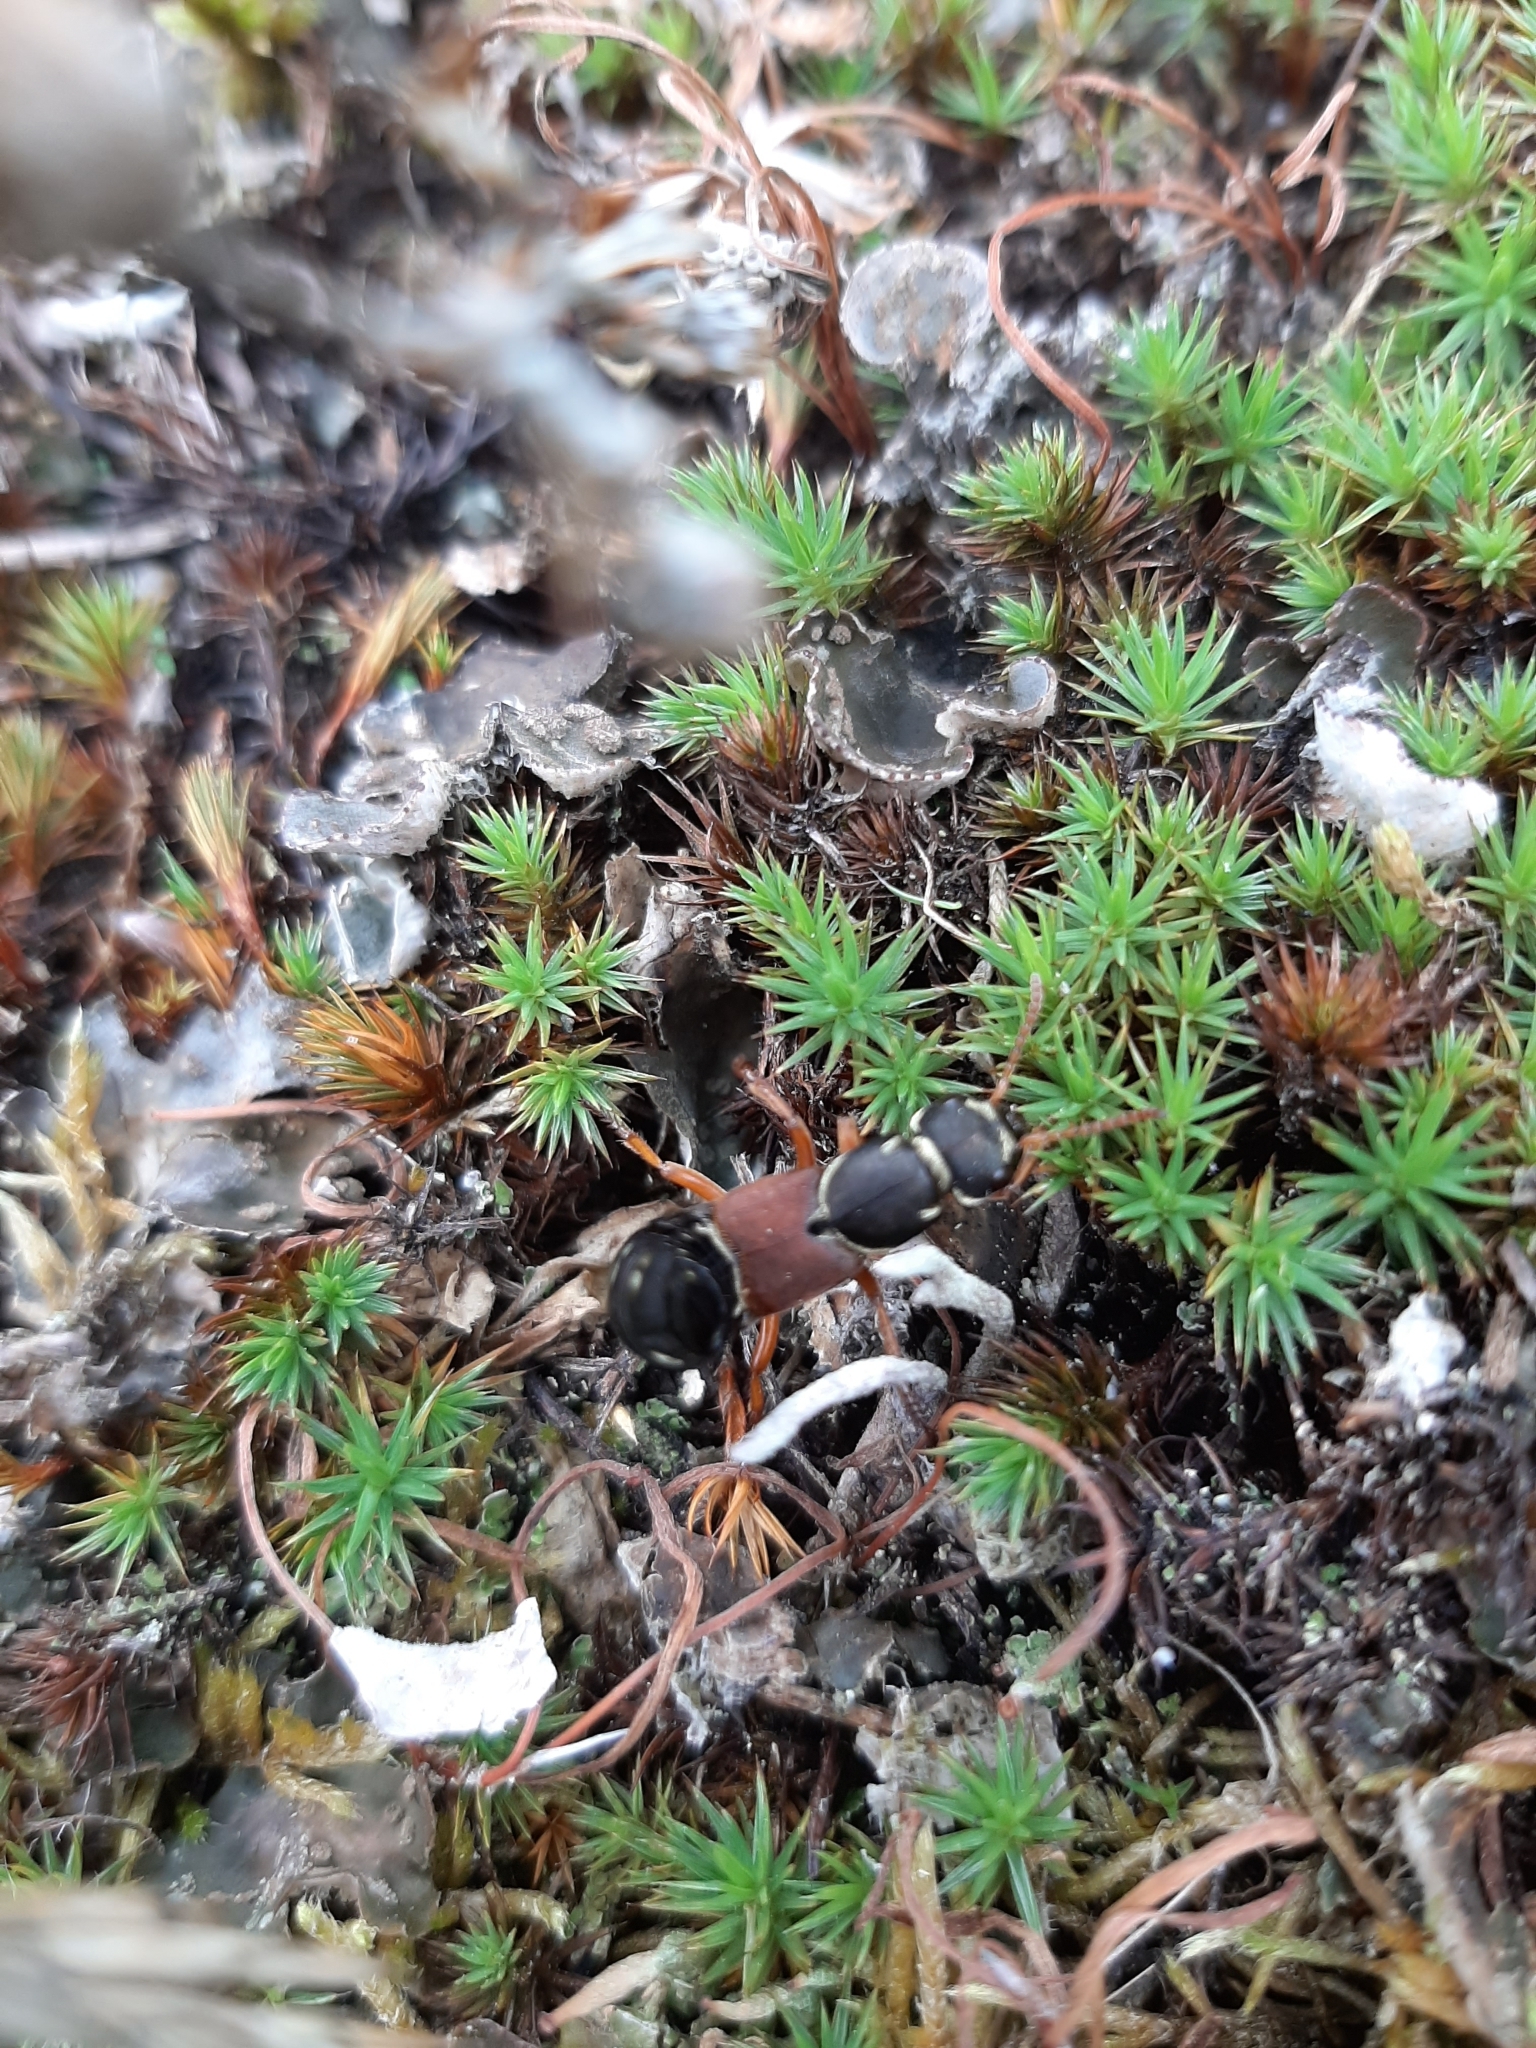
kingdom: Animalia
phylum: Arthropoda
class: Insecta
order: Coleoptera
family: Staphylinidae
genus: Staphylinus
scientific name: Staphylinus caesareus
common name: Staph beetle
